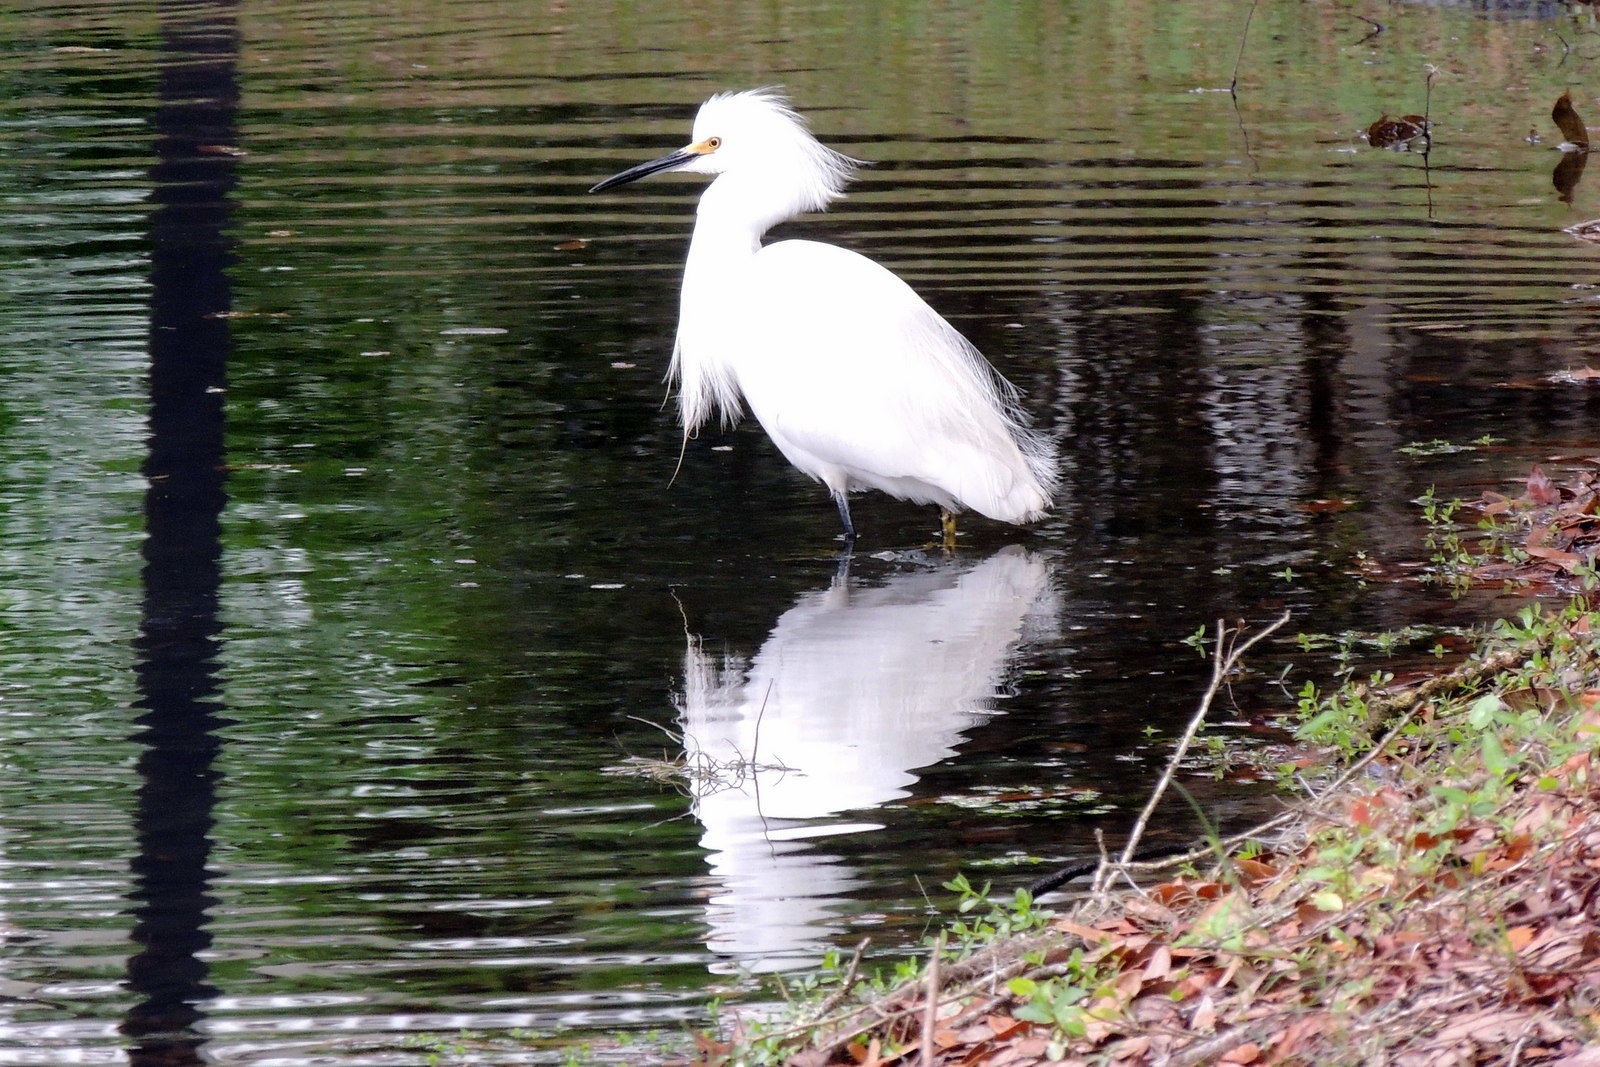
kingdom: Animalia
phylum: Chordata
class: Aves
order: Pelecaniformes
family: Ardeidae
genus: Egretta
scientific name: Egretta thula
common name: Snowy egret
